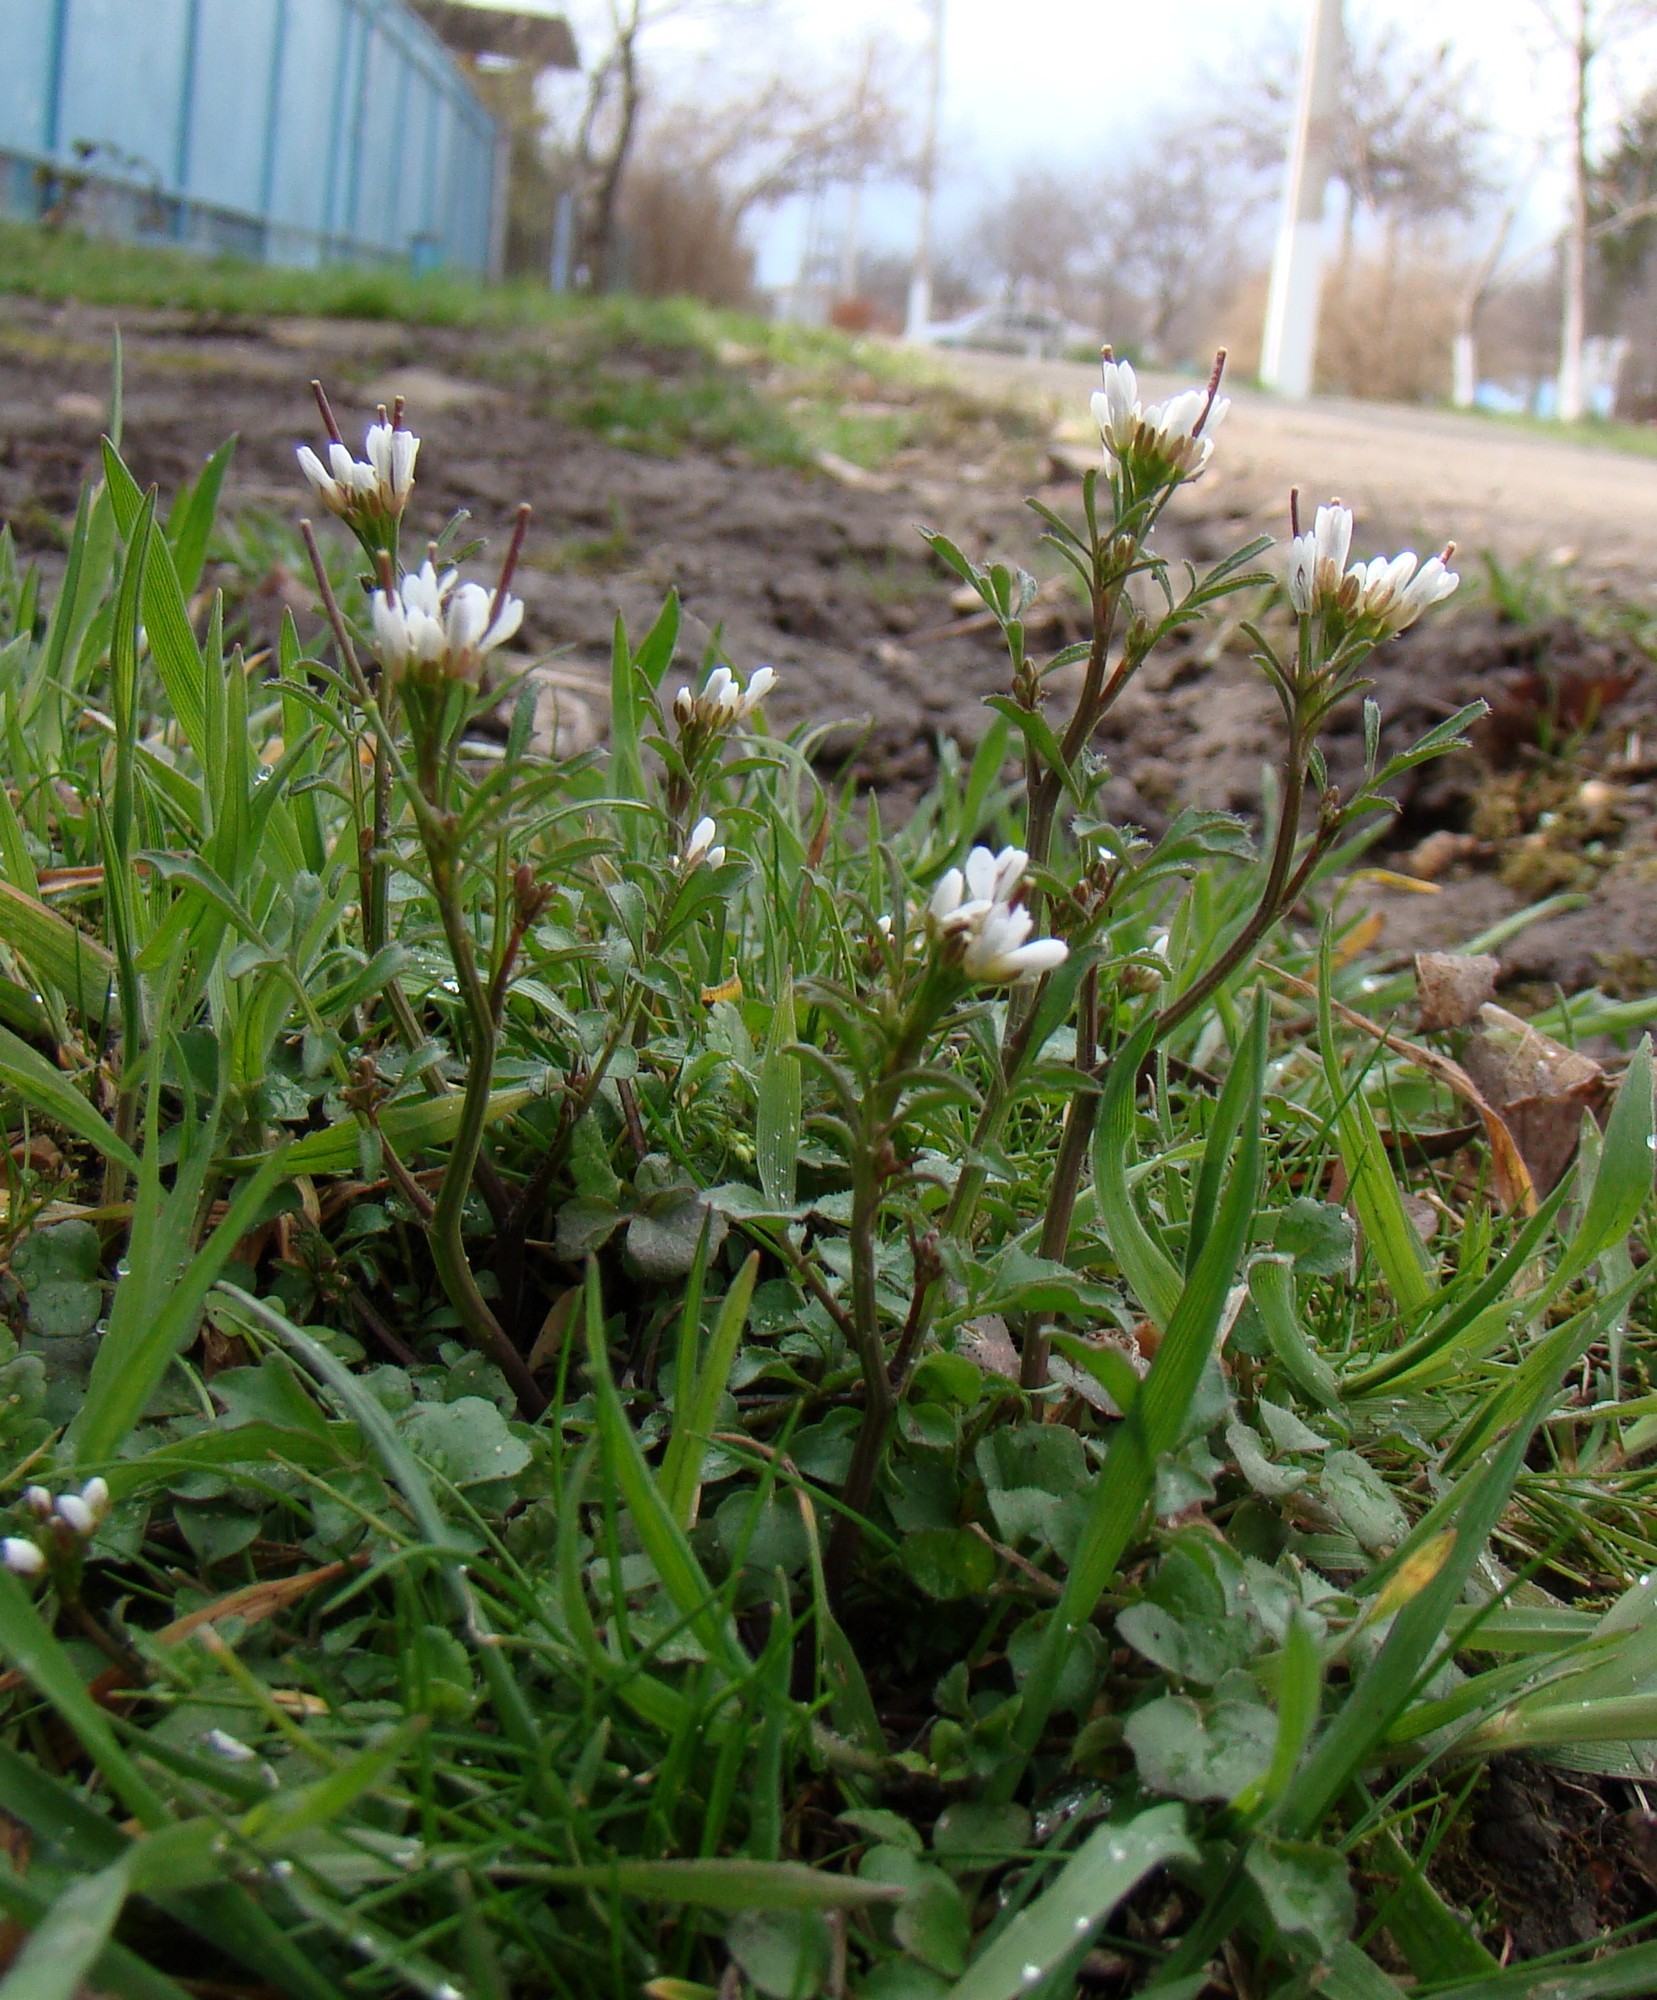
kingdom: Plantae
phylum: Tracheophyta
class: Magnoliopsida
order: Brassicales
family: Brassicaceae
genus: Cardamine
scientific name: Cardamine hirsuta
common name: Hairy bittercress
